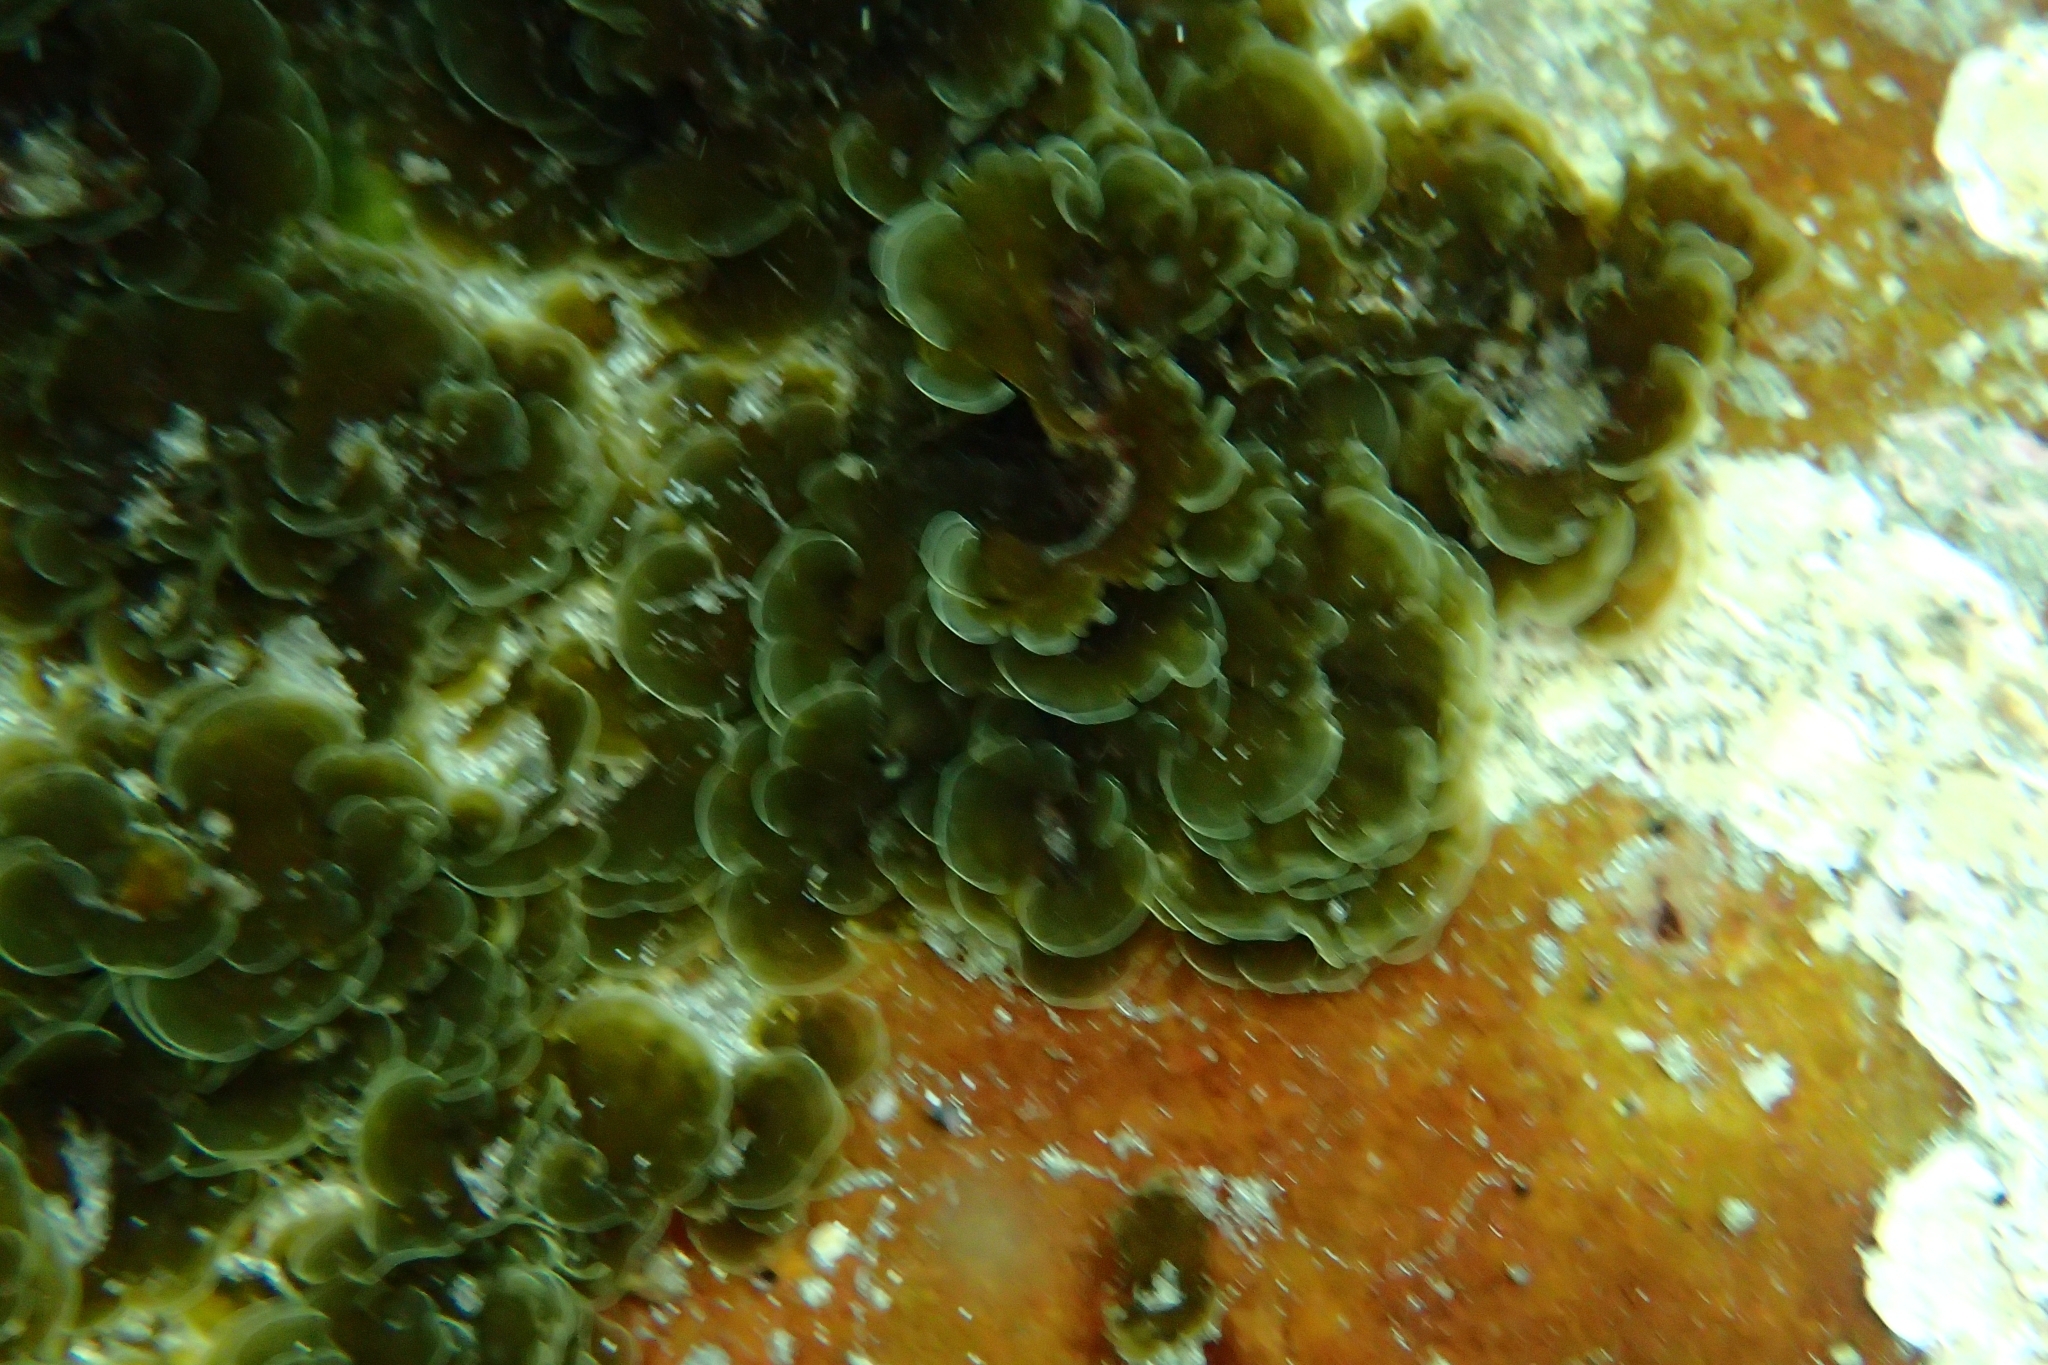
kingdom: Chromista
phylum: Ochrophyta
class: Phaeophyceae
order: Syringodermatales
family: Syringodermataceae
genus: Microzonia
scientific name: Microzonia velutina
